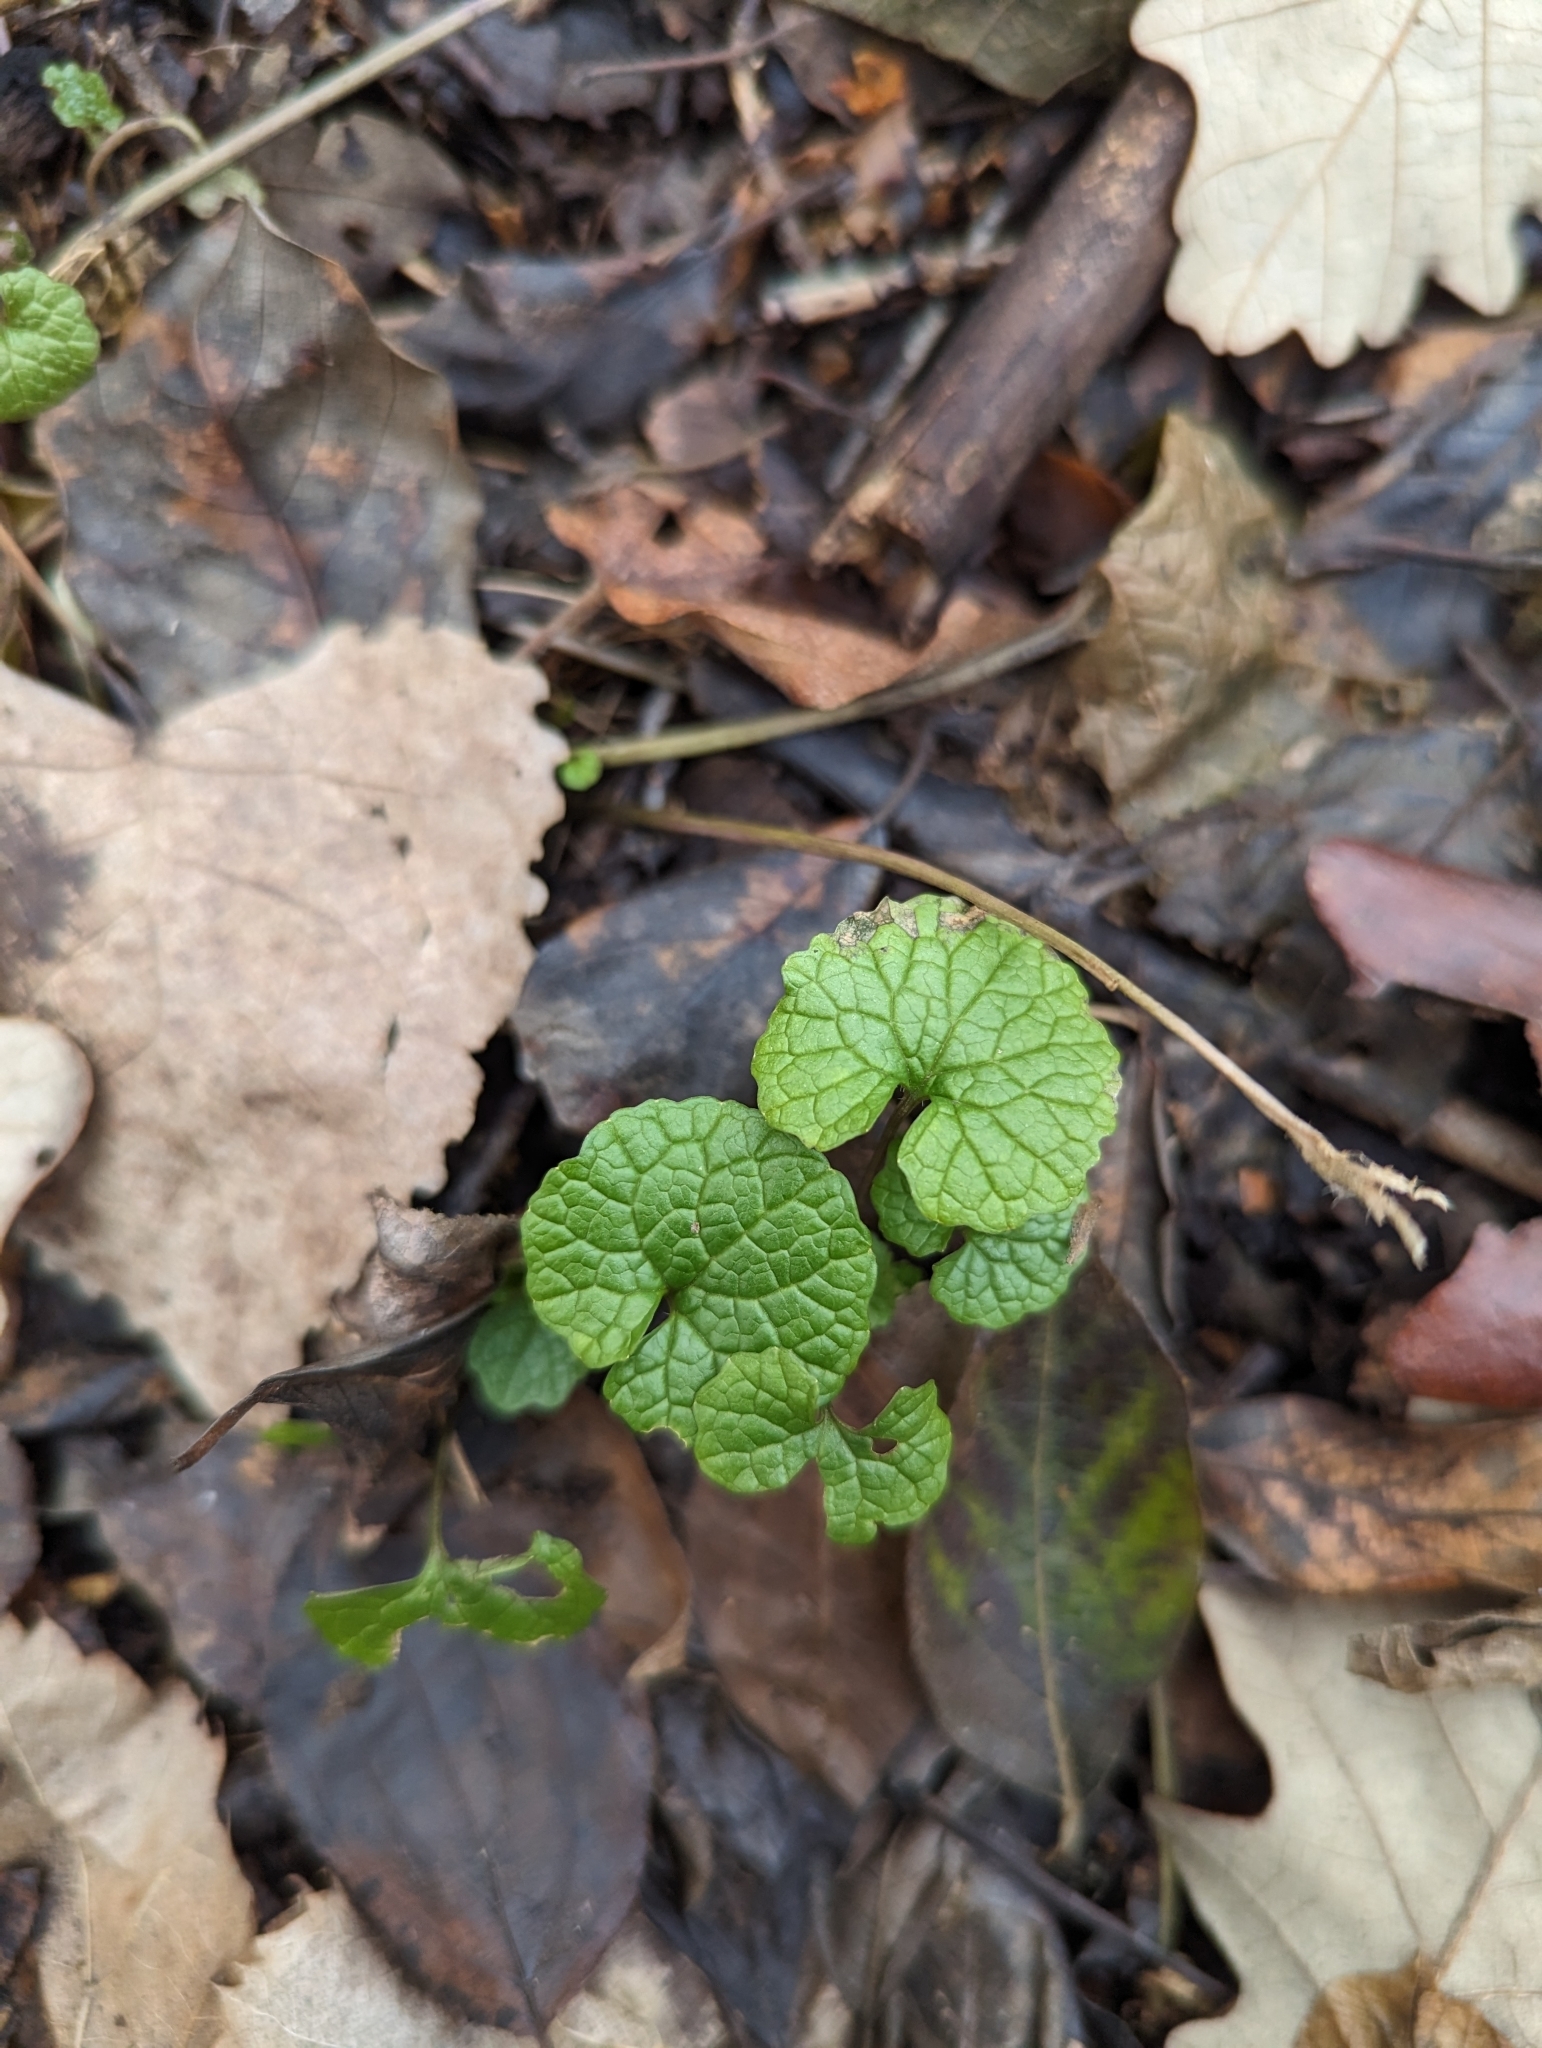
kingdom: Plantae
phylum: Tracheophyta
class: Magnoliopsida
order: Brassicales
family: Brassicaceae
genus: Alliaria
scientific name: Alliaria petiolata
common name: Garlic mustard
